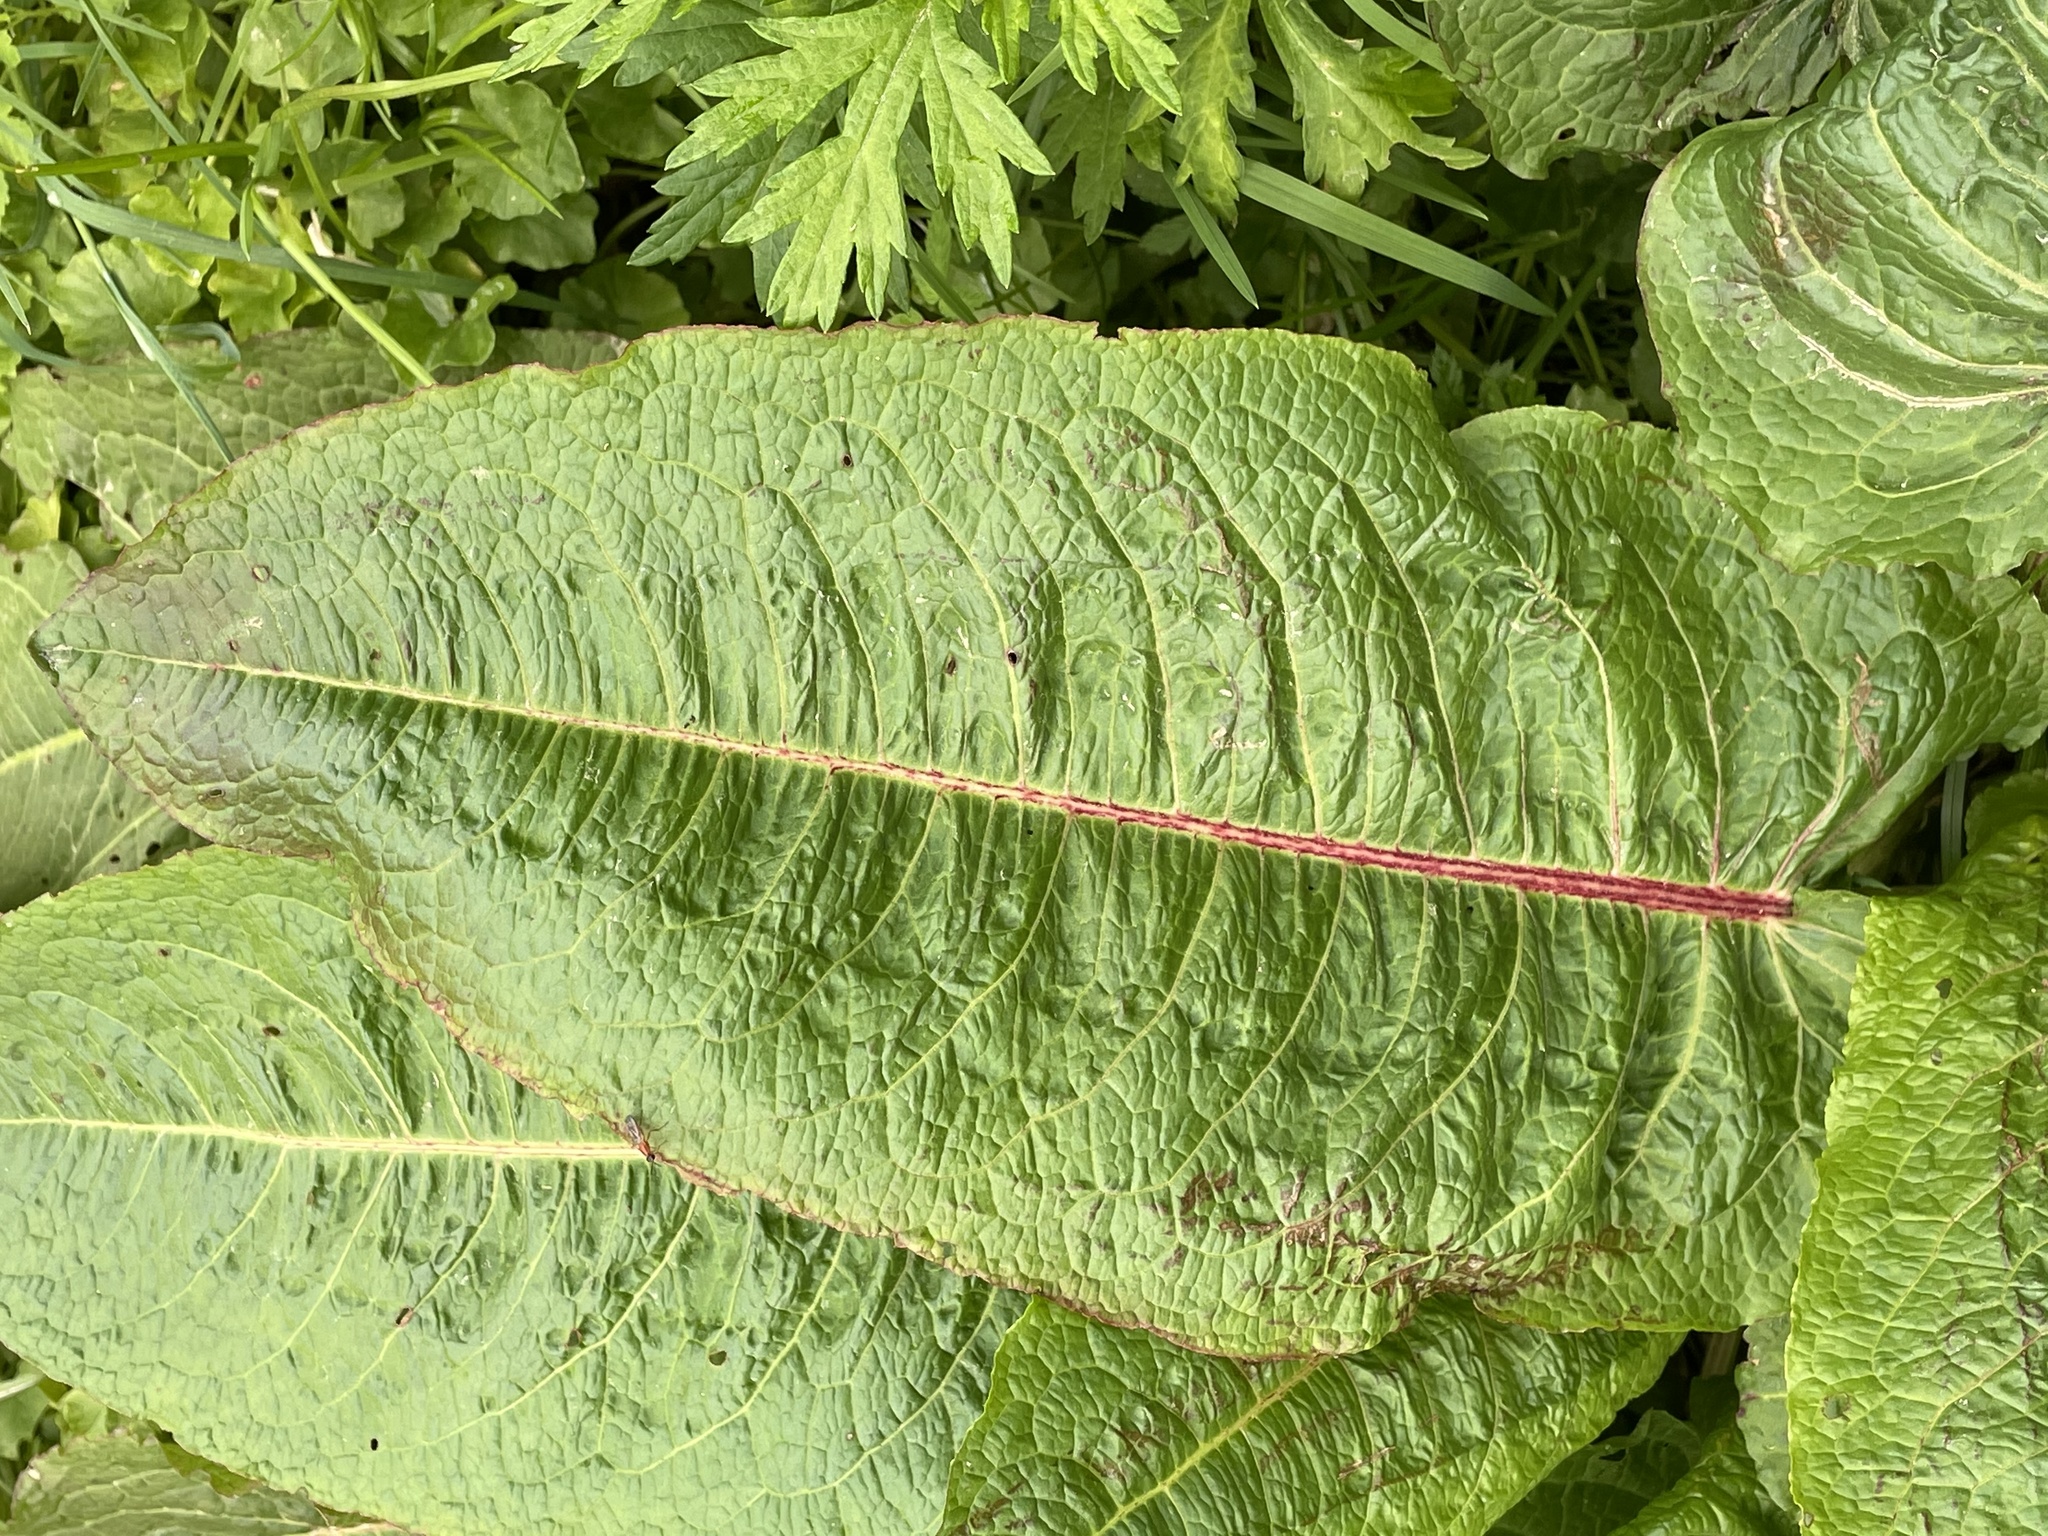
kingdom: Plantae
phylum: Tracheophyta
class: Magnoliopsida
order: Caryophyllales
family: Polygonaceae
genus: Rumex
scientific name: Rumex obtusifolius
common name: Bitter dock
